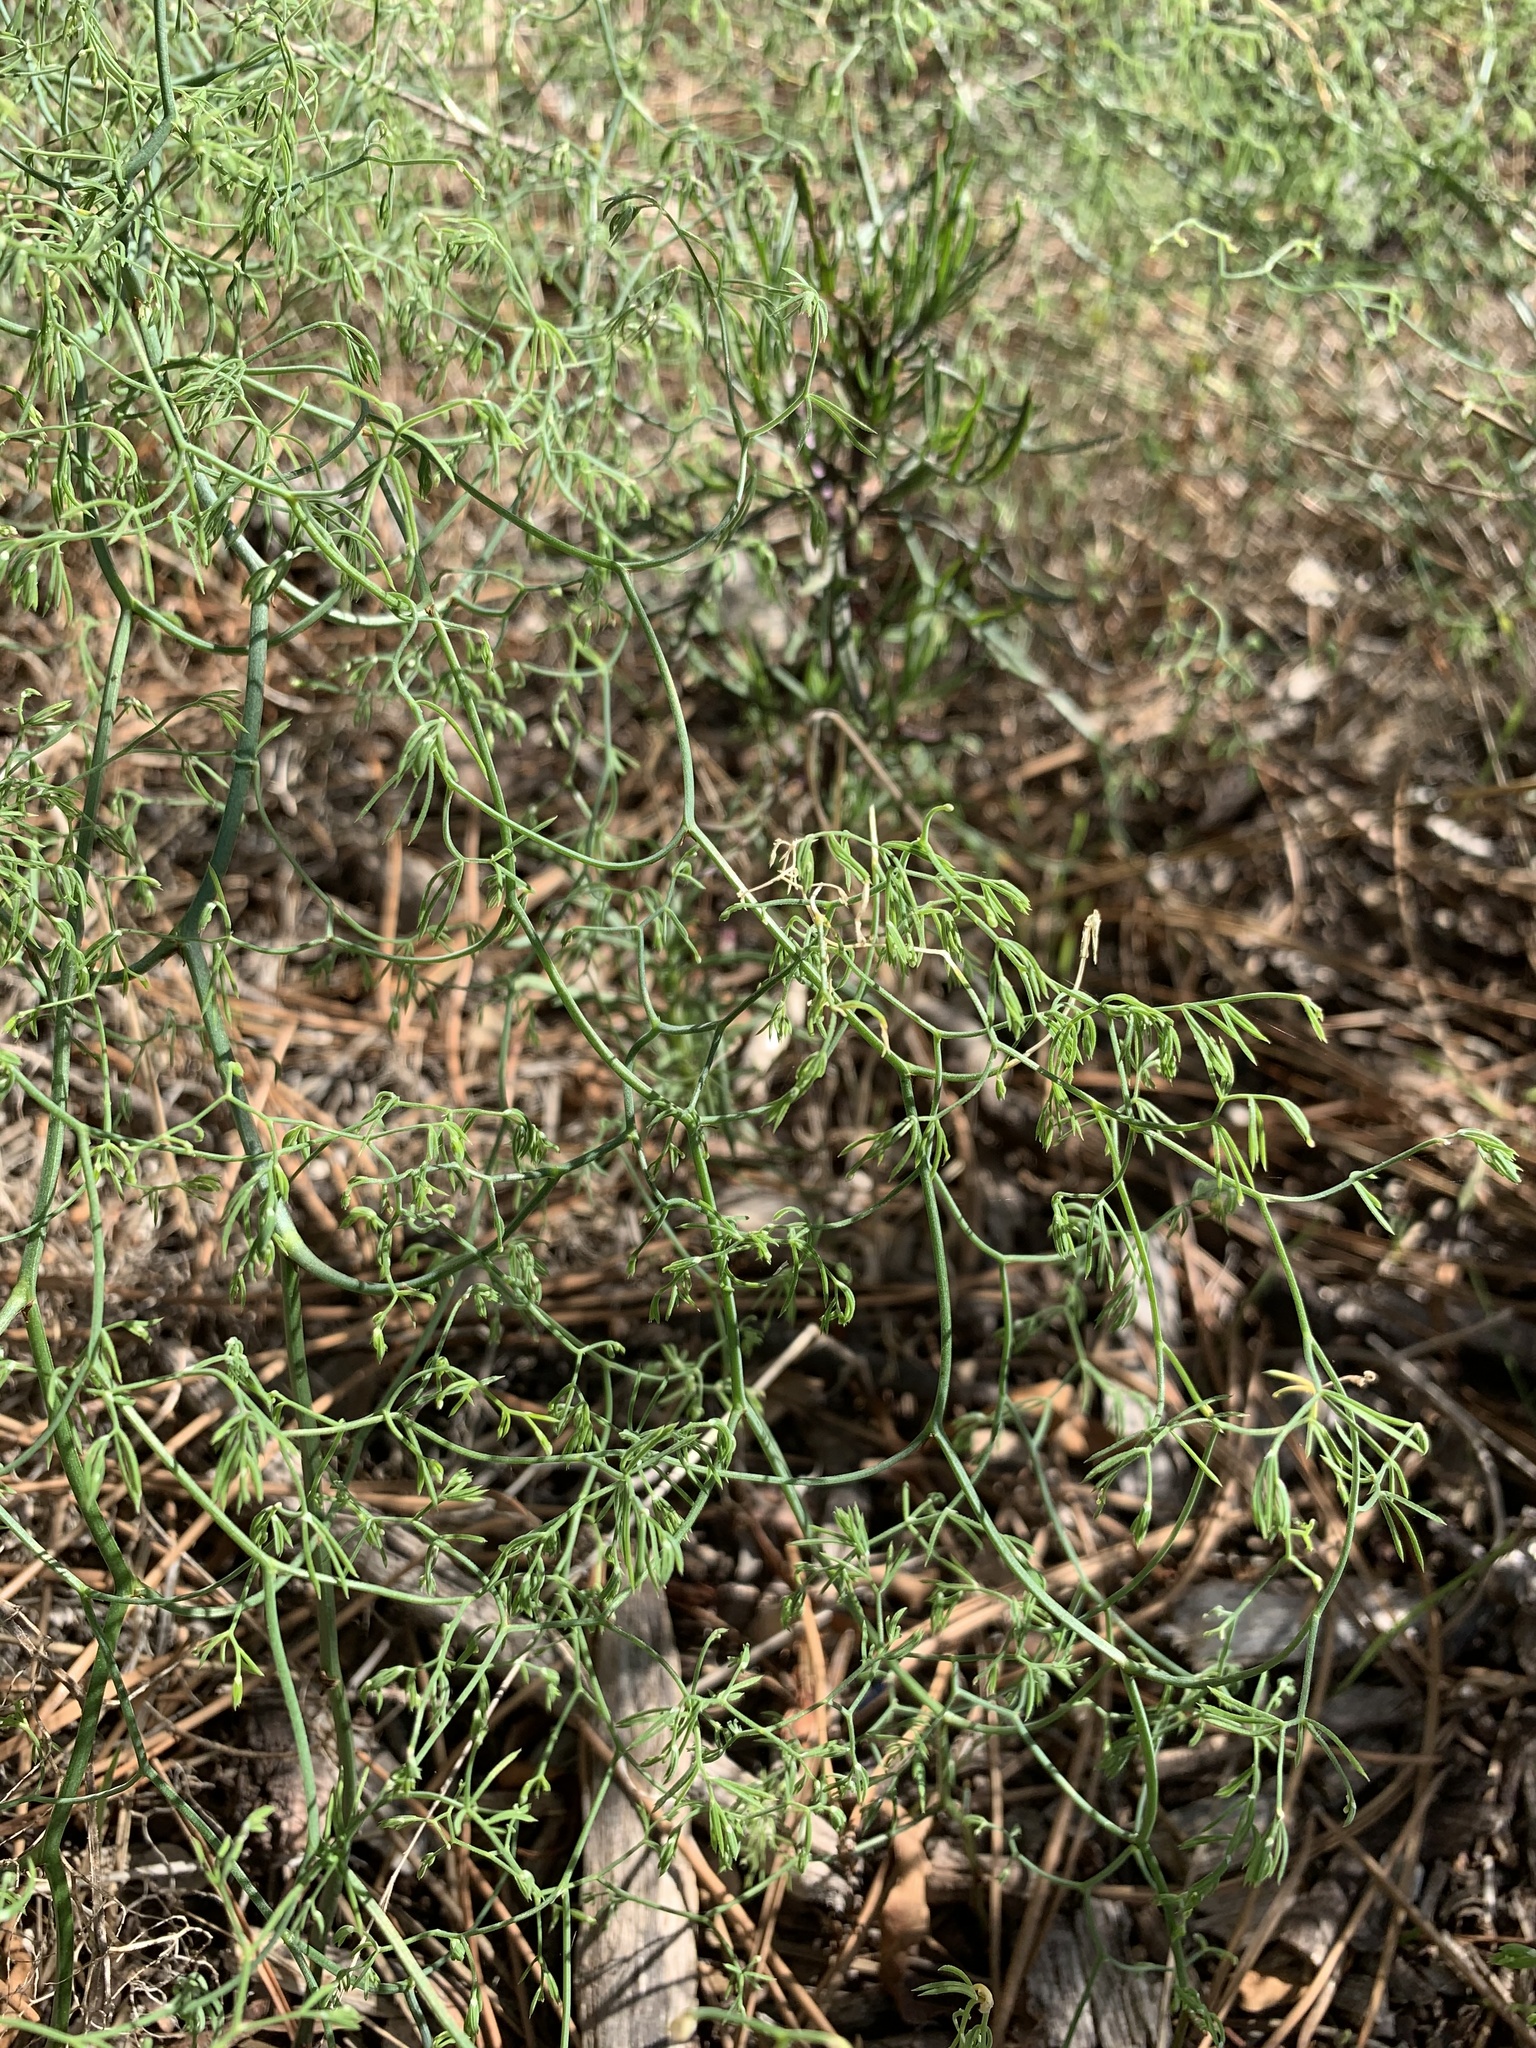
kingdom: Plantae
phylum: Tracheophyta
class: Liliopsida
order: Asparagales
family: Asparagaceae
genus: Asparagus
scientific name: Asparagus declinatus
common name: Bridal-creeper
